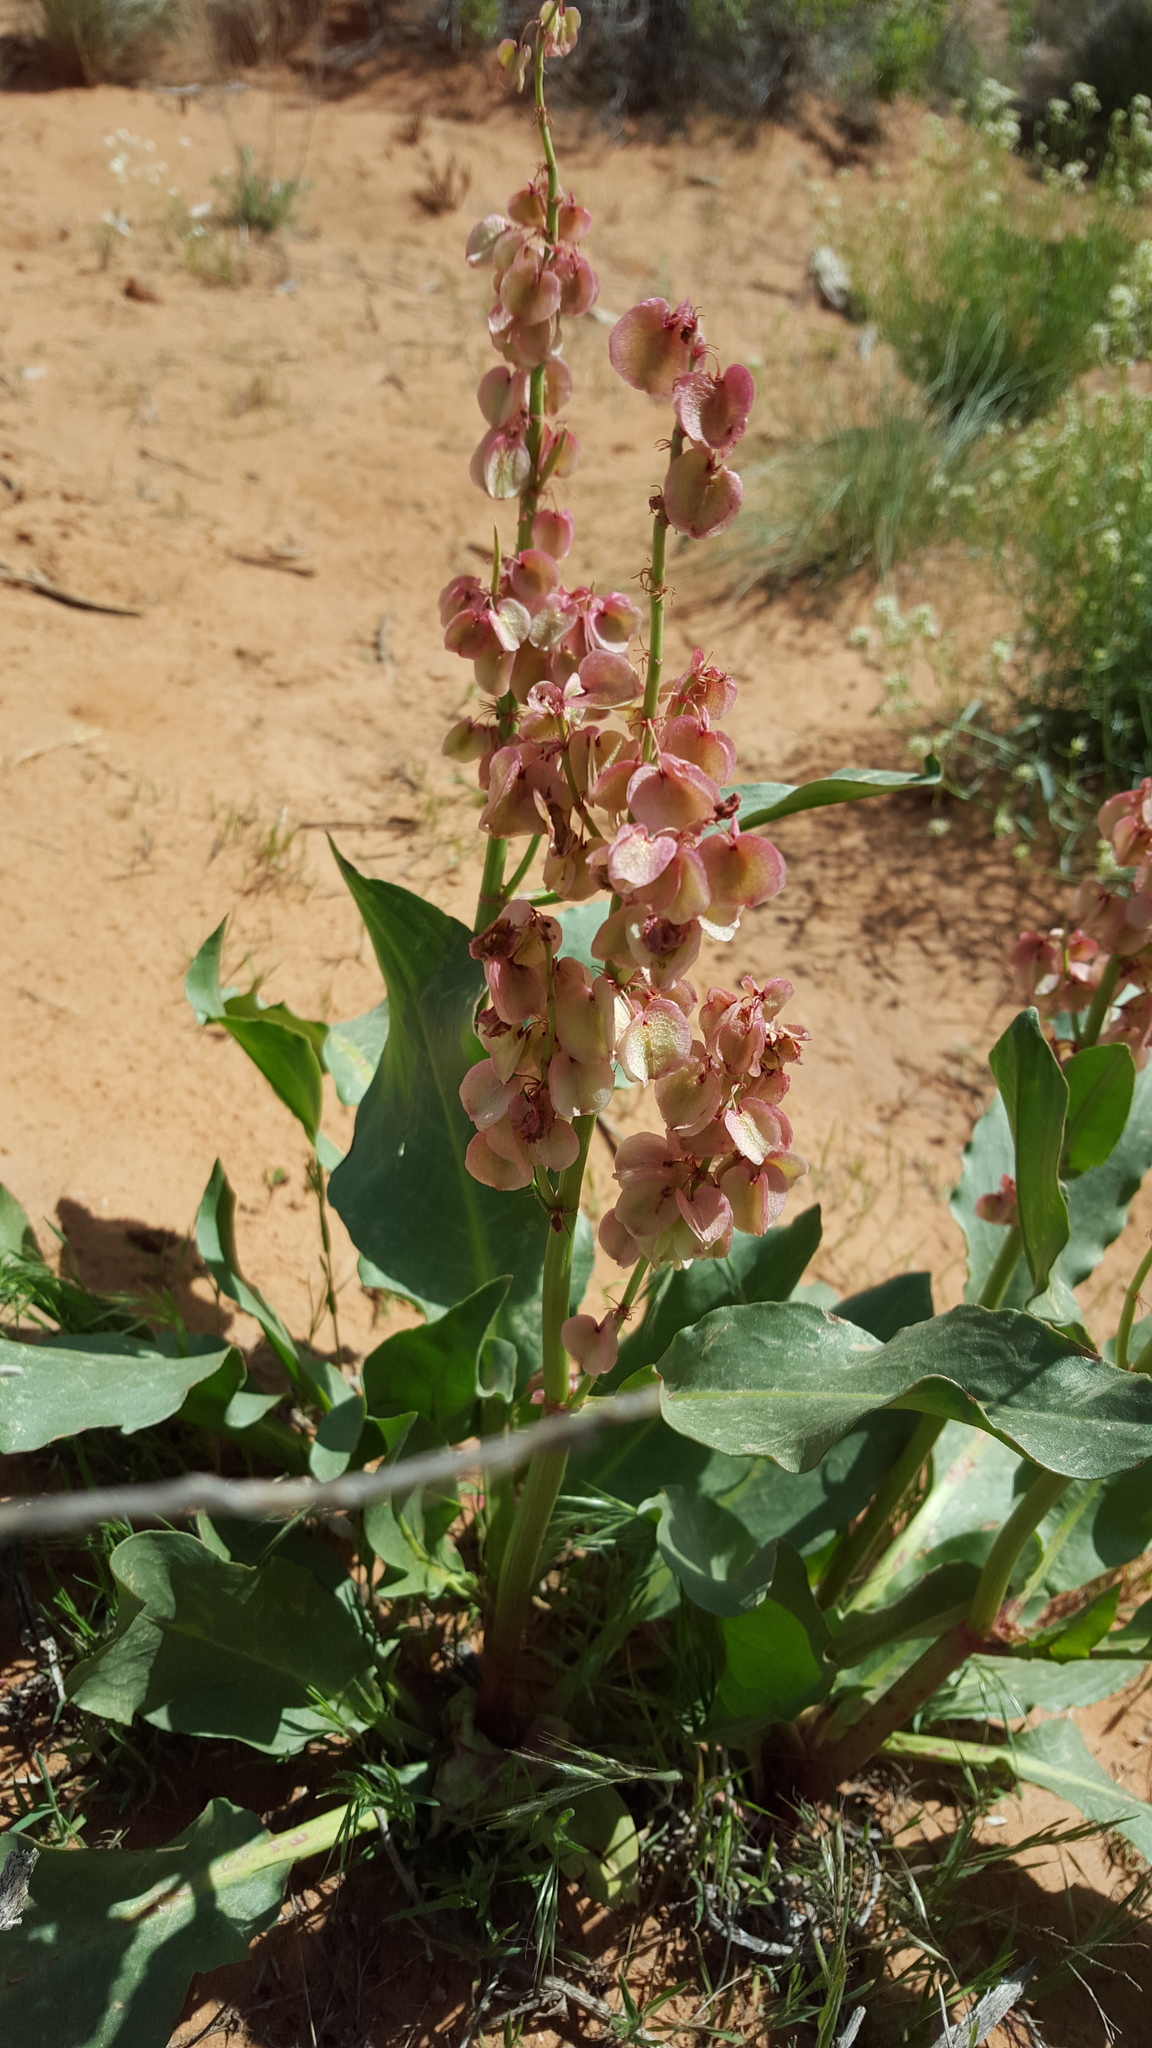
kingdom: Plantae
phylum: Tracheophyta
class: Magnoliopsida
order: Caryophyllales
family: Polygonaceae
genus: Rumex
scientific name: Rumex hymenosepalus
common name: Ganagra
